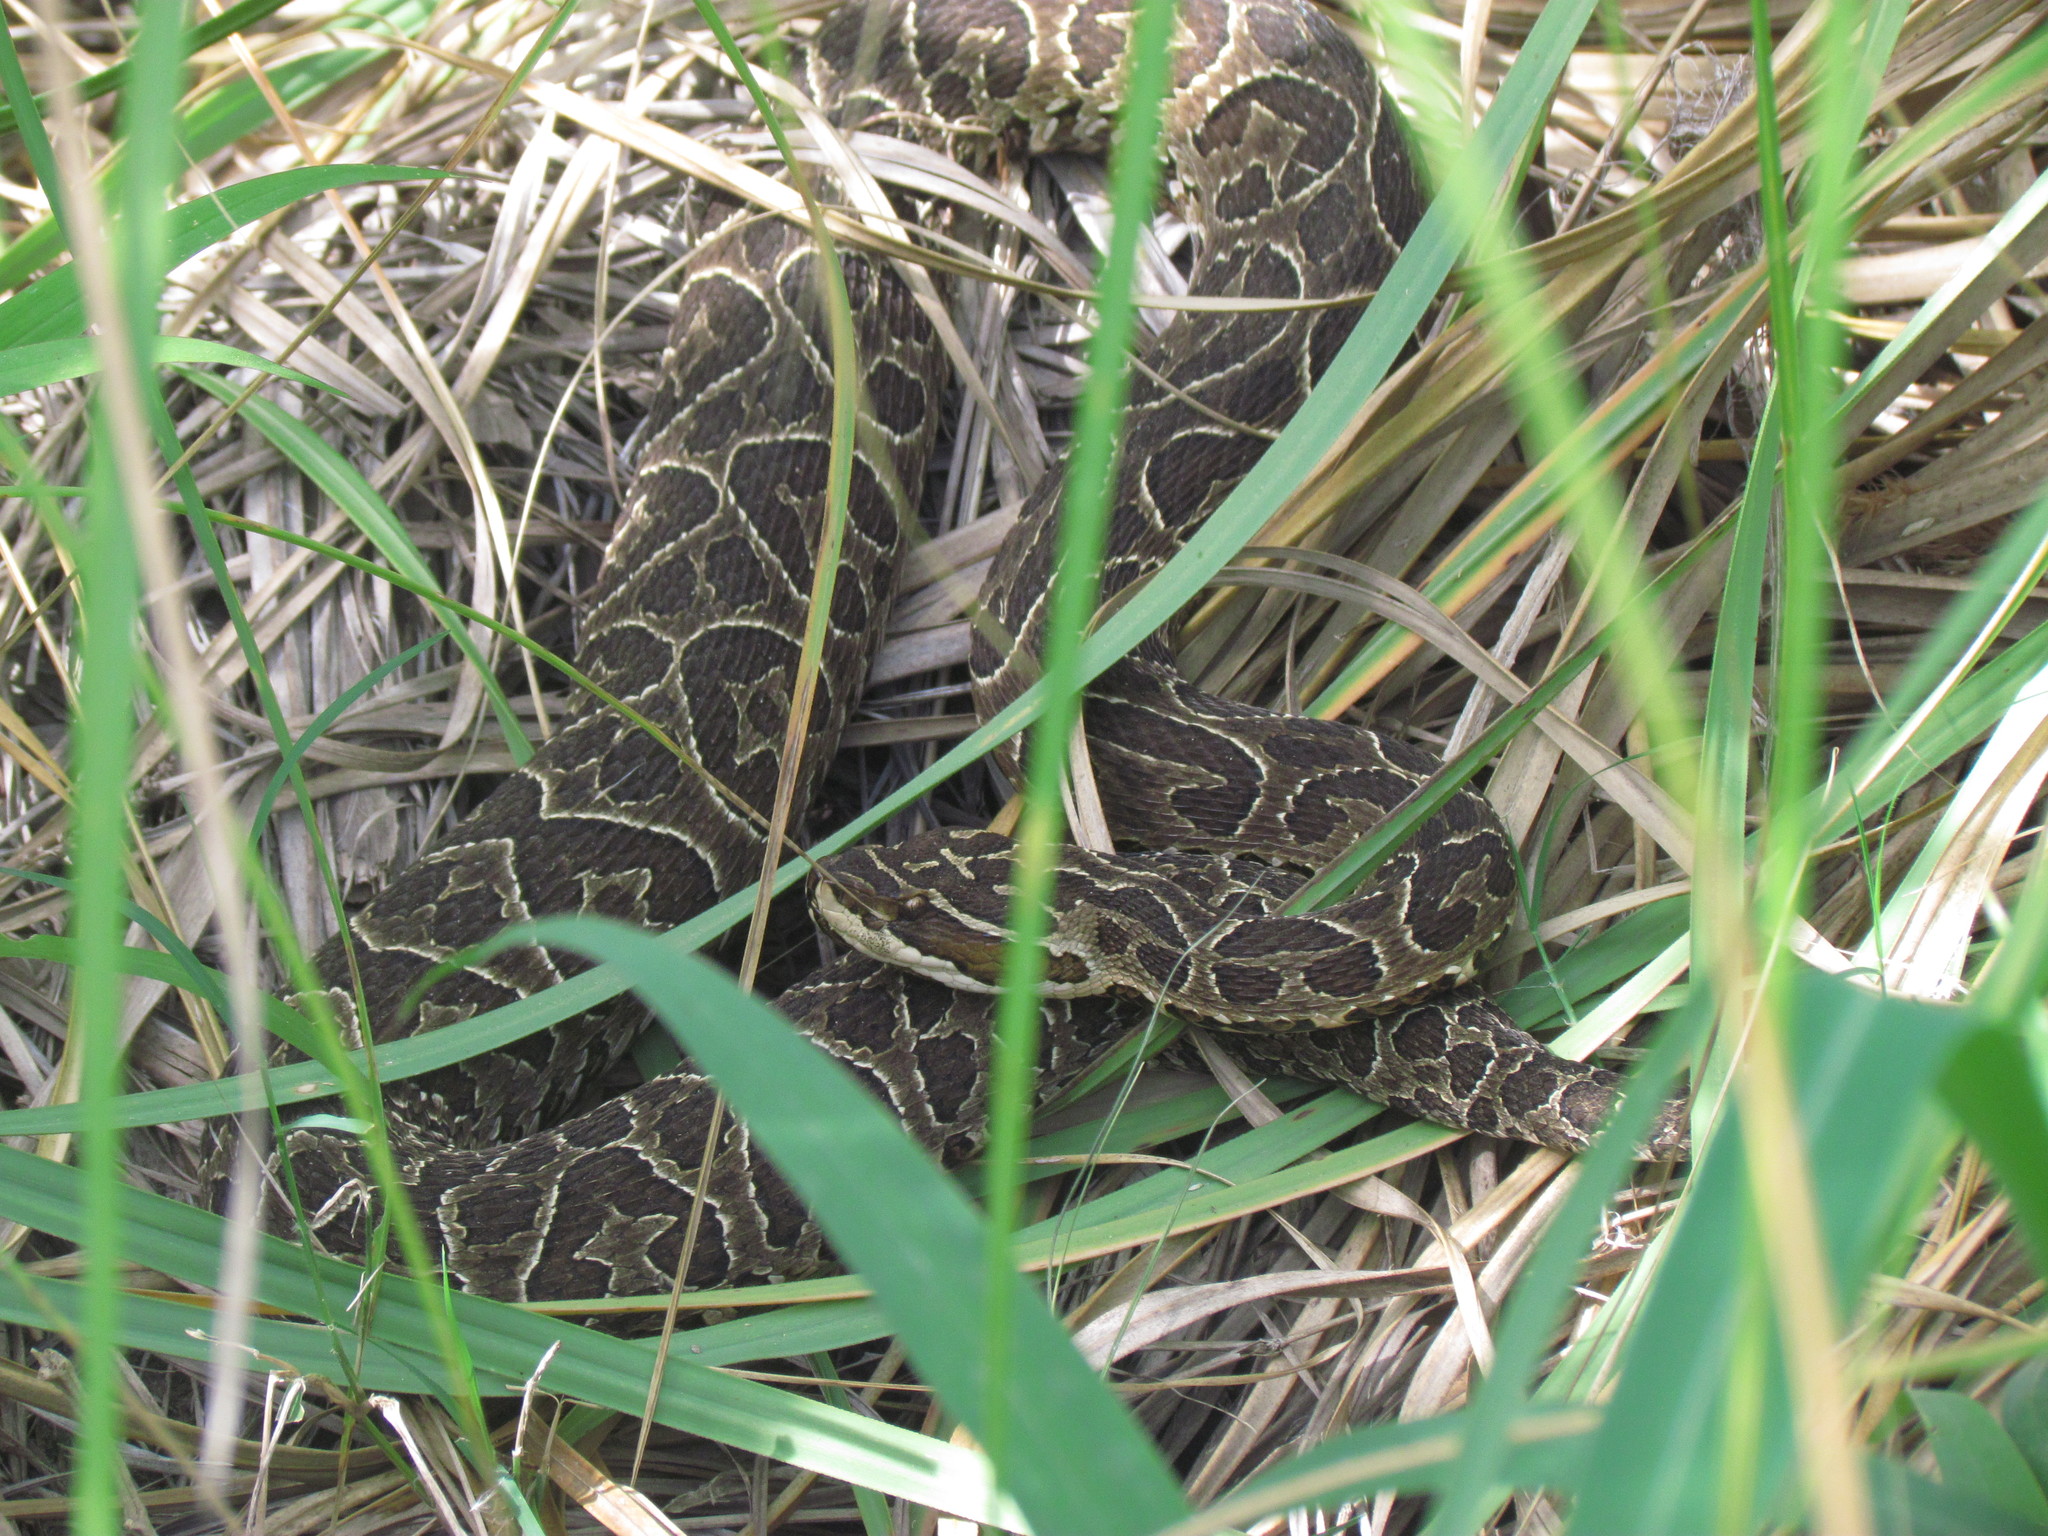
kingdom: Animalia
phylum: Chordata
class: Squamata
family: Viperidae
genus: Bothrops
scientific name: Bothrops alternatus
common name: Urutu
